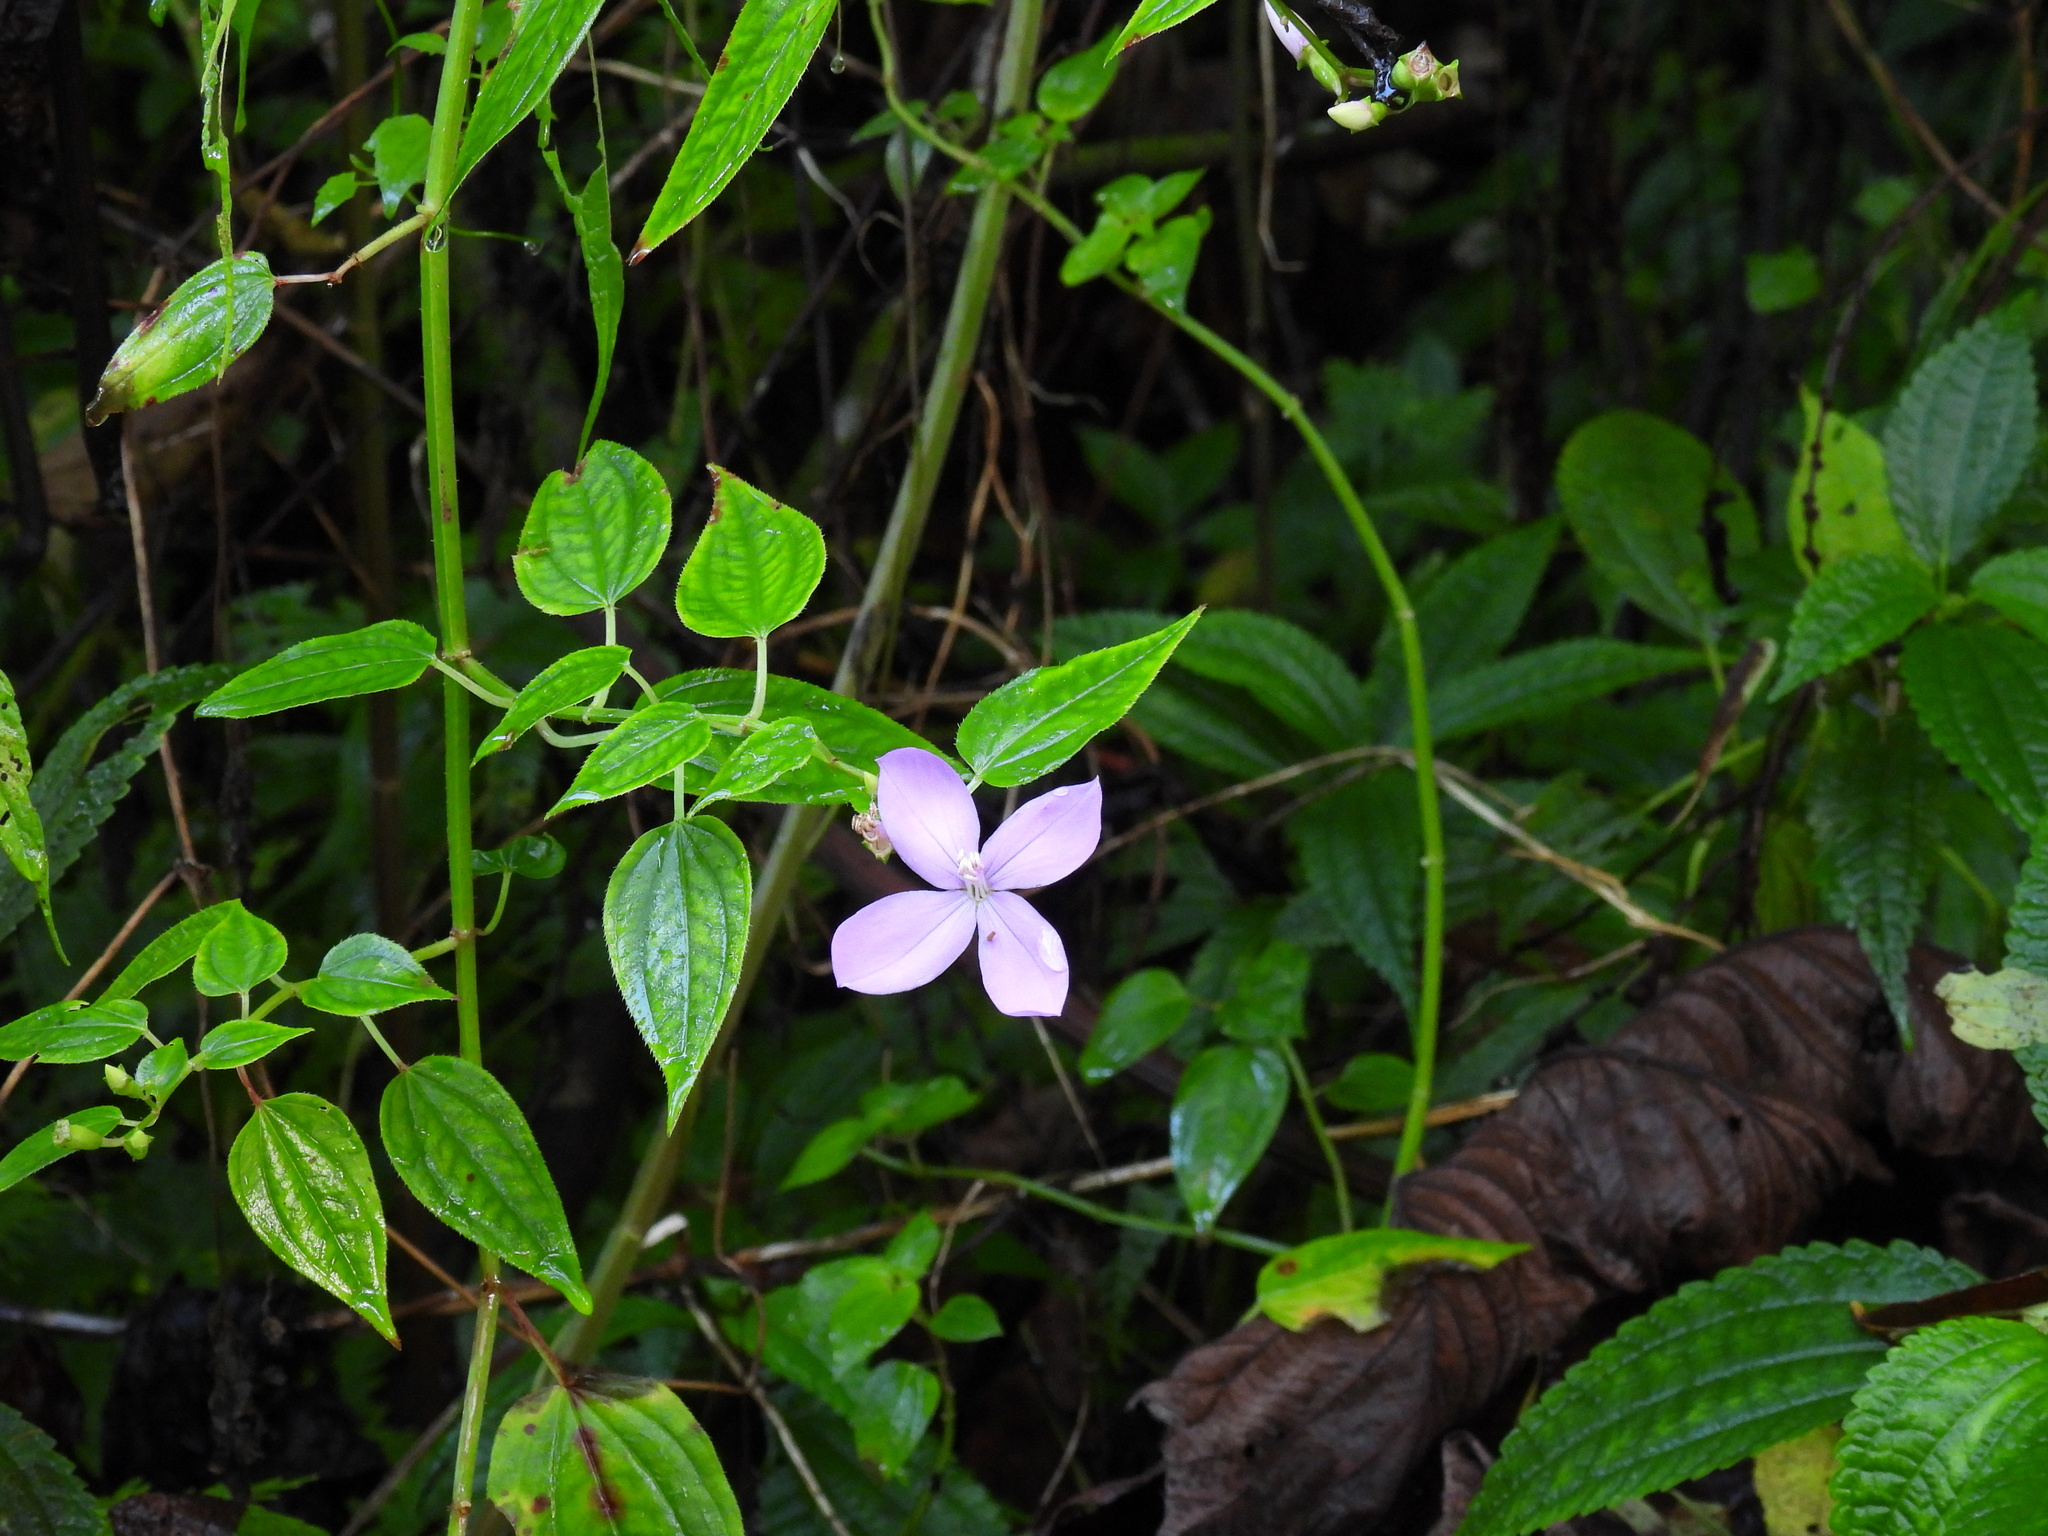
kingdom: Plantae
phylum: Tracheophyta
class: Magnoliopsida
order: Myrtales
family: Melastomataceae
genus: Arthrostemma
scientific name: Arthrostemma ciliatum
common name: Everblooming eavender
